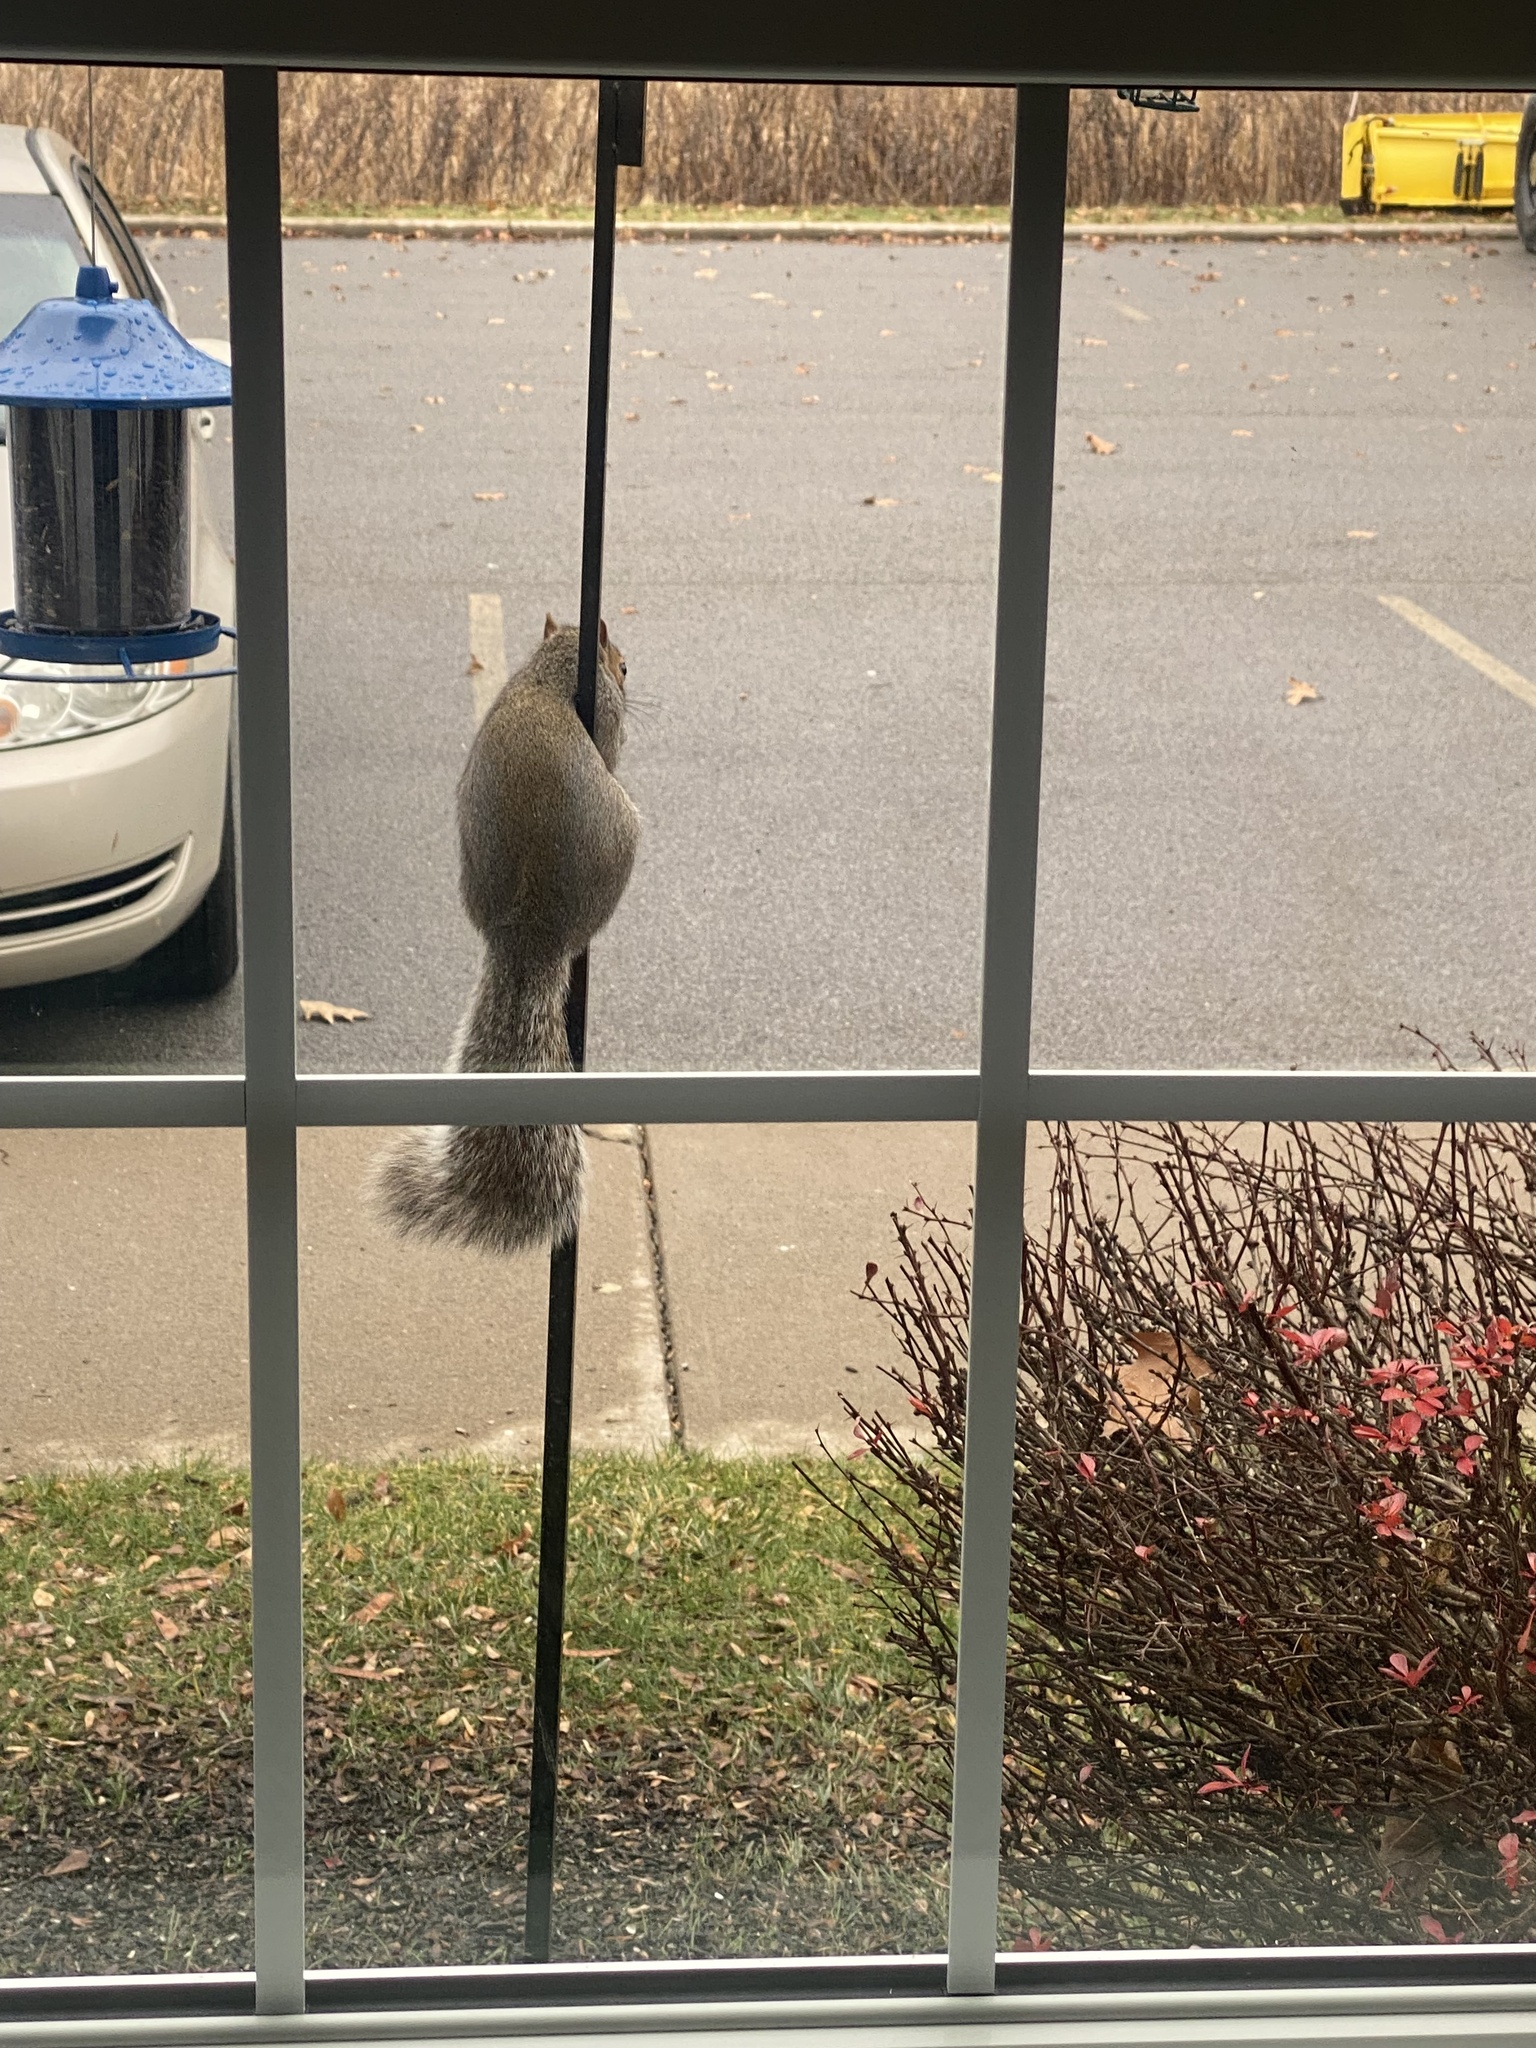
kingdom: Animalia
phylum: Chordata
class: Mammalia
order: Rodentia
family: Sciuridae
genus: Sciurus
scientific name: Sciurus carolinensis
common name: Eastern gray squirrel
